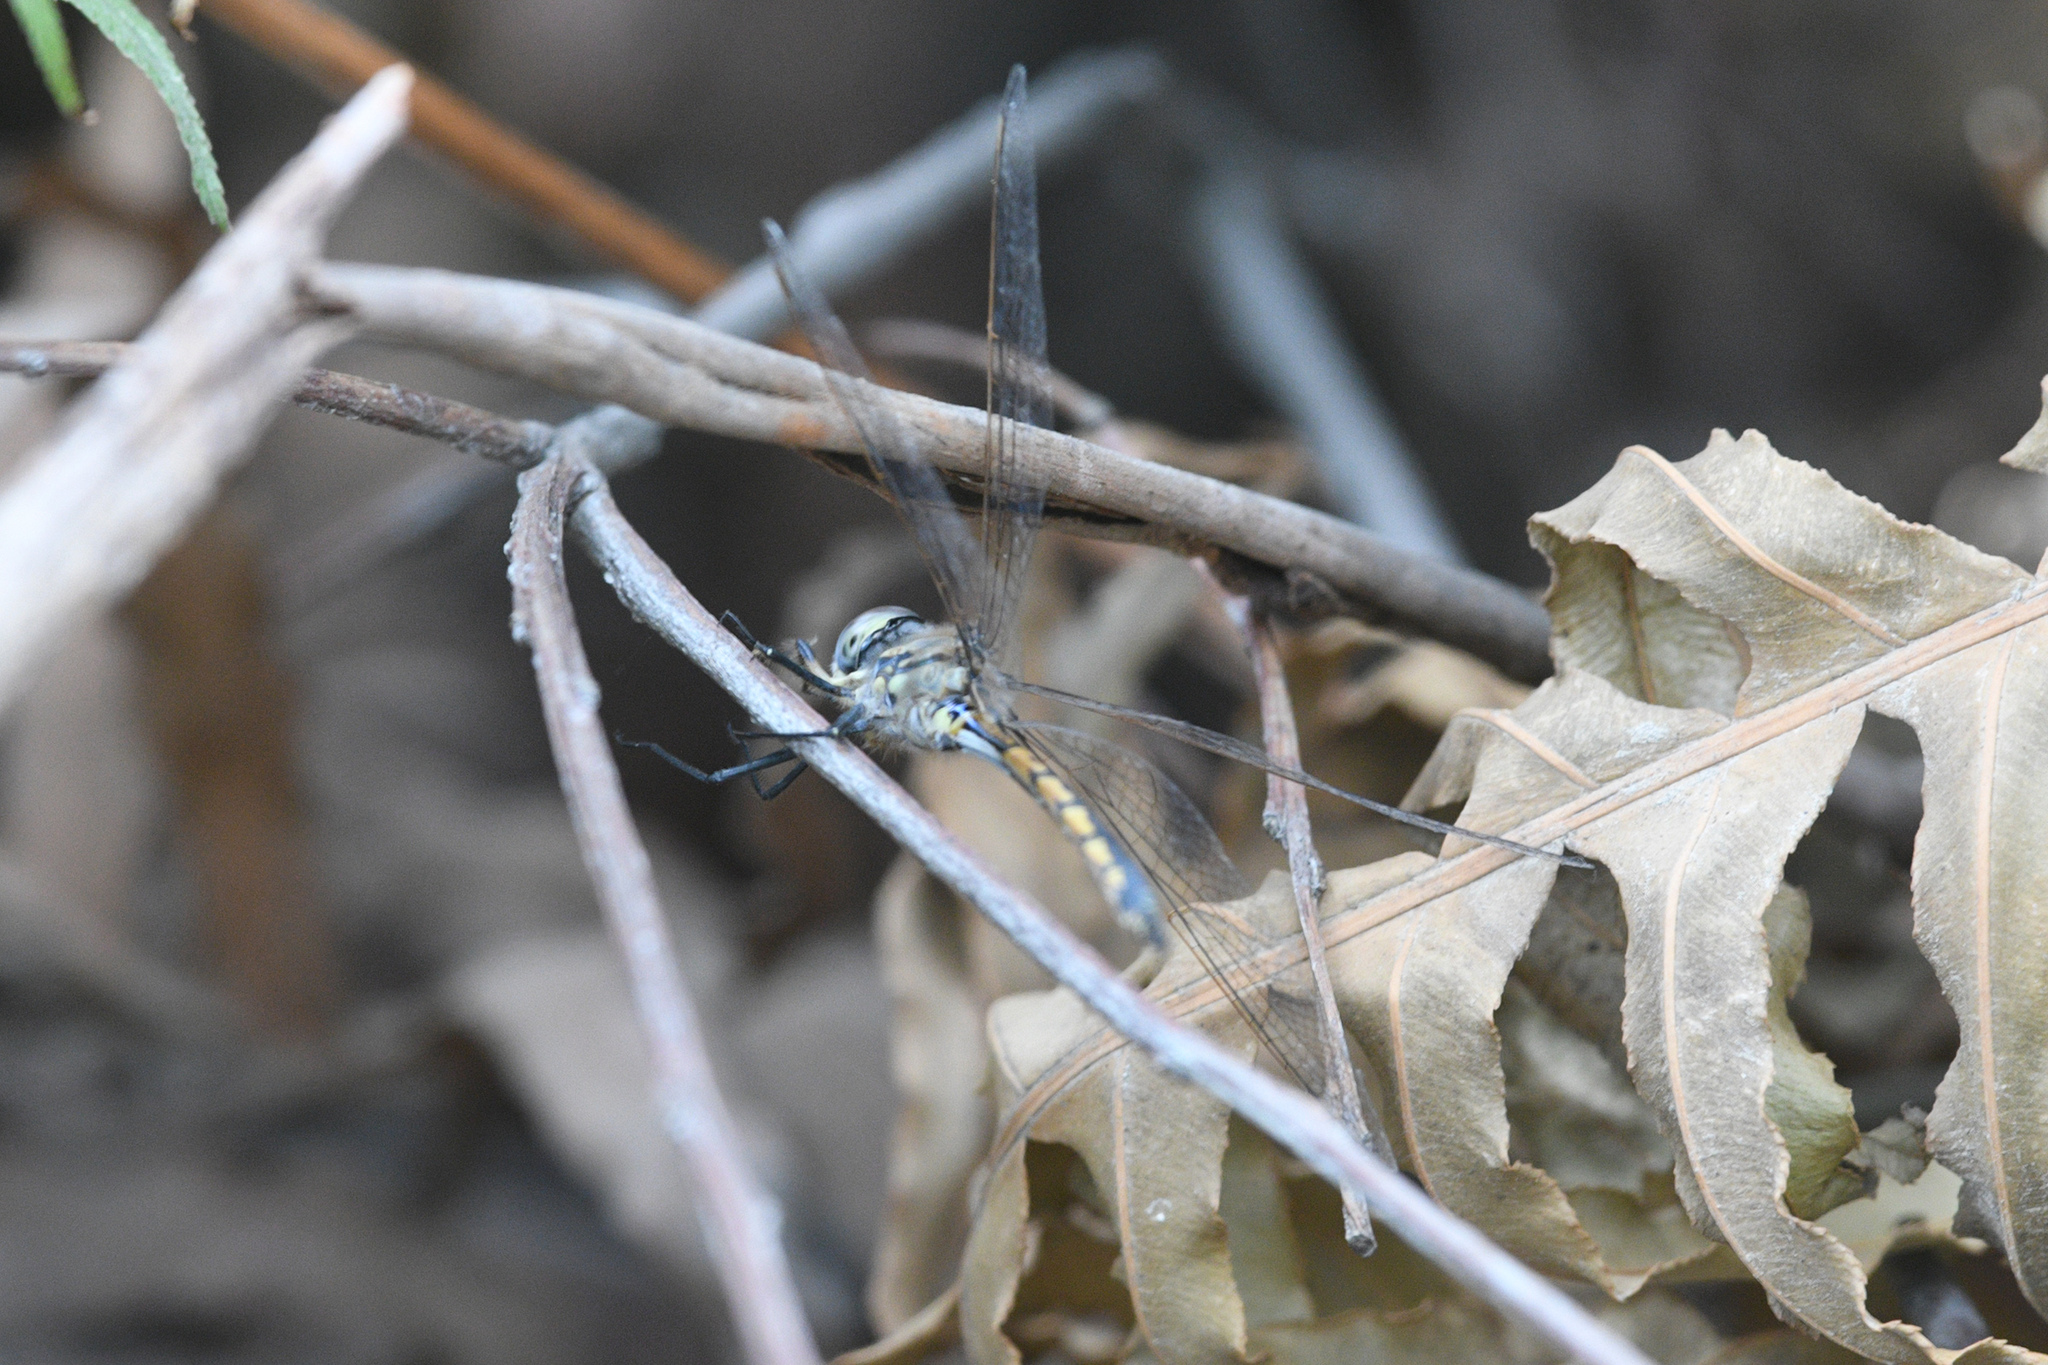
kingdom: Animalia
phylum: Arthropoda
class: Insecta
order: Odonata
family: Corduliidae
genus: Hemicordulia
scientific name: Hemicordulia tau
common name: Tau emerald
